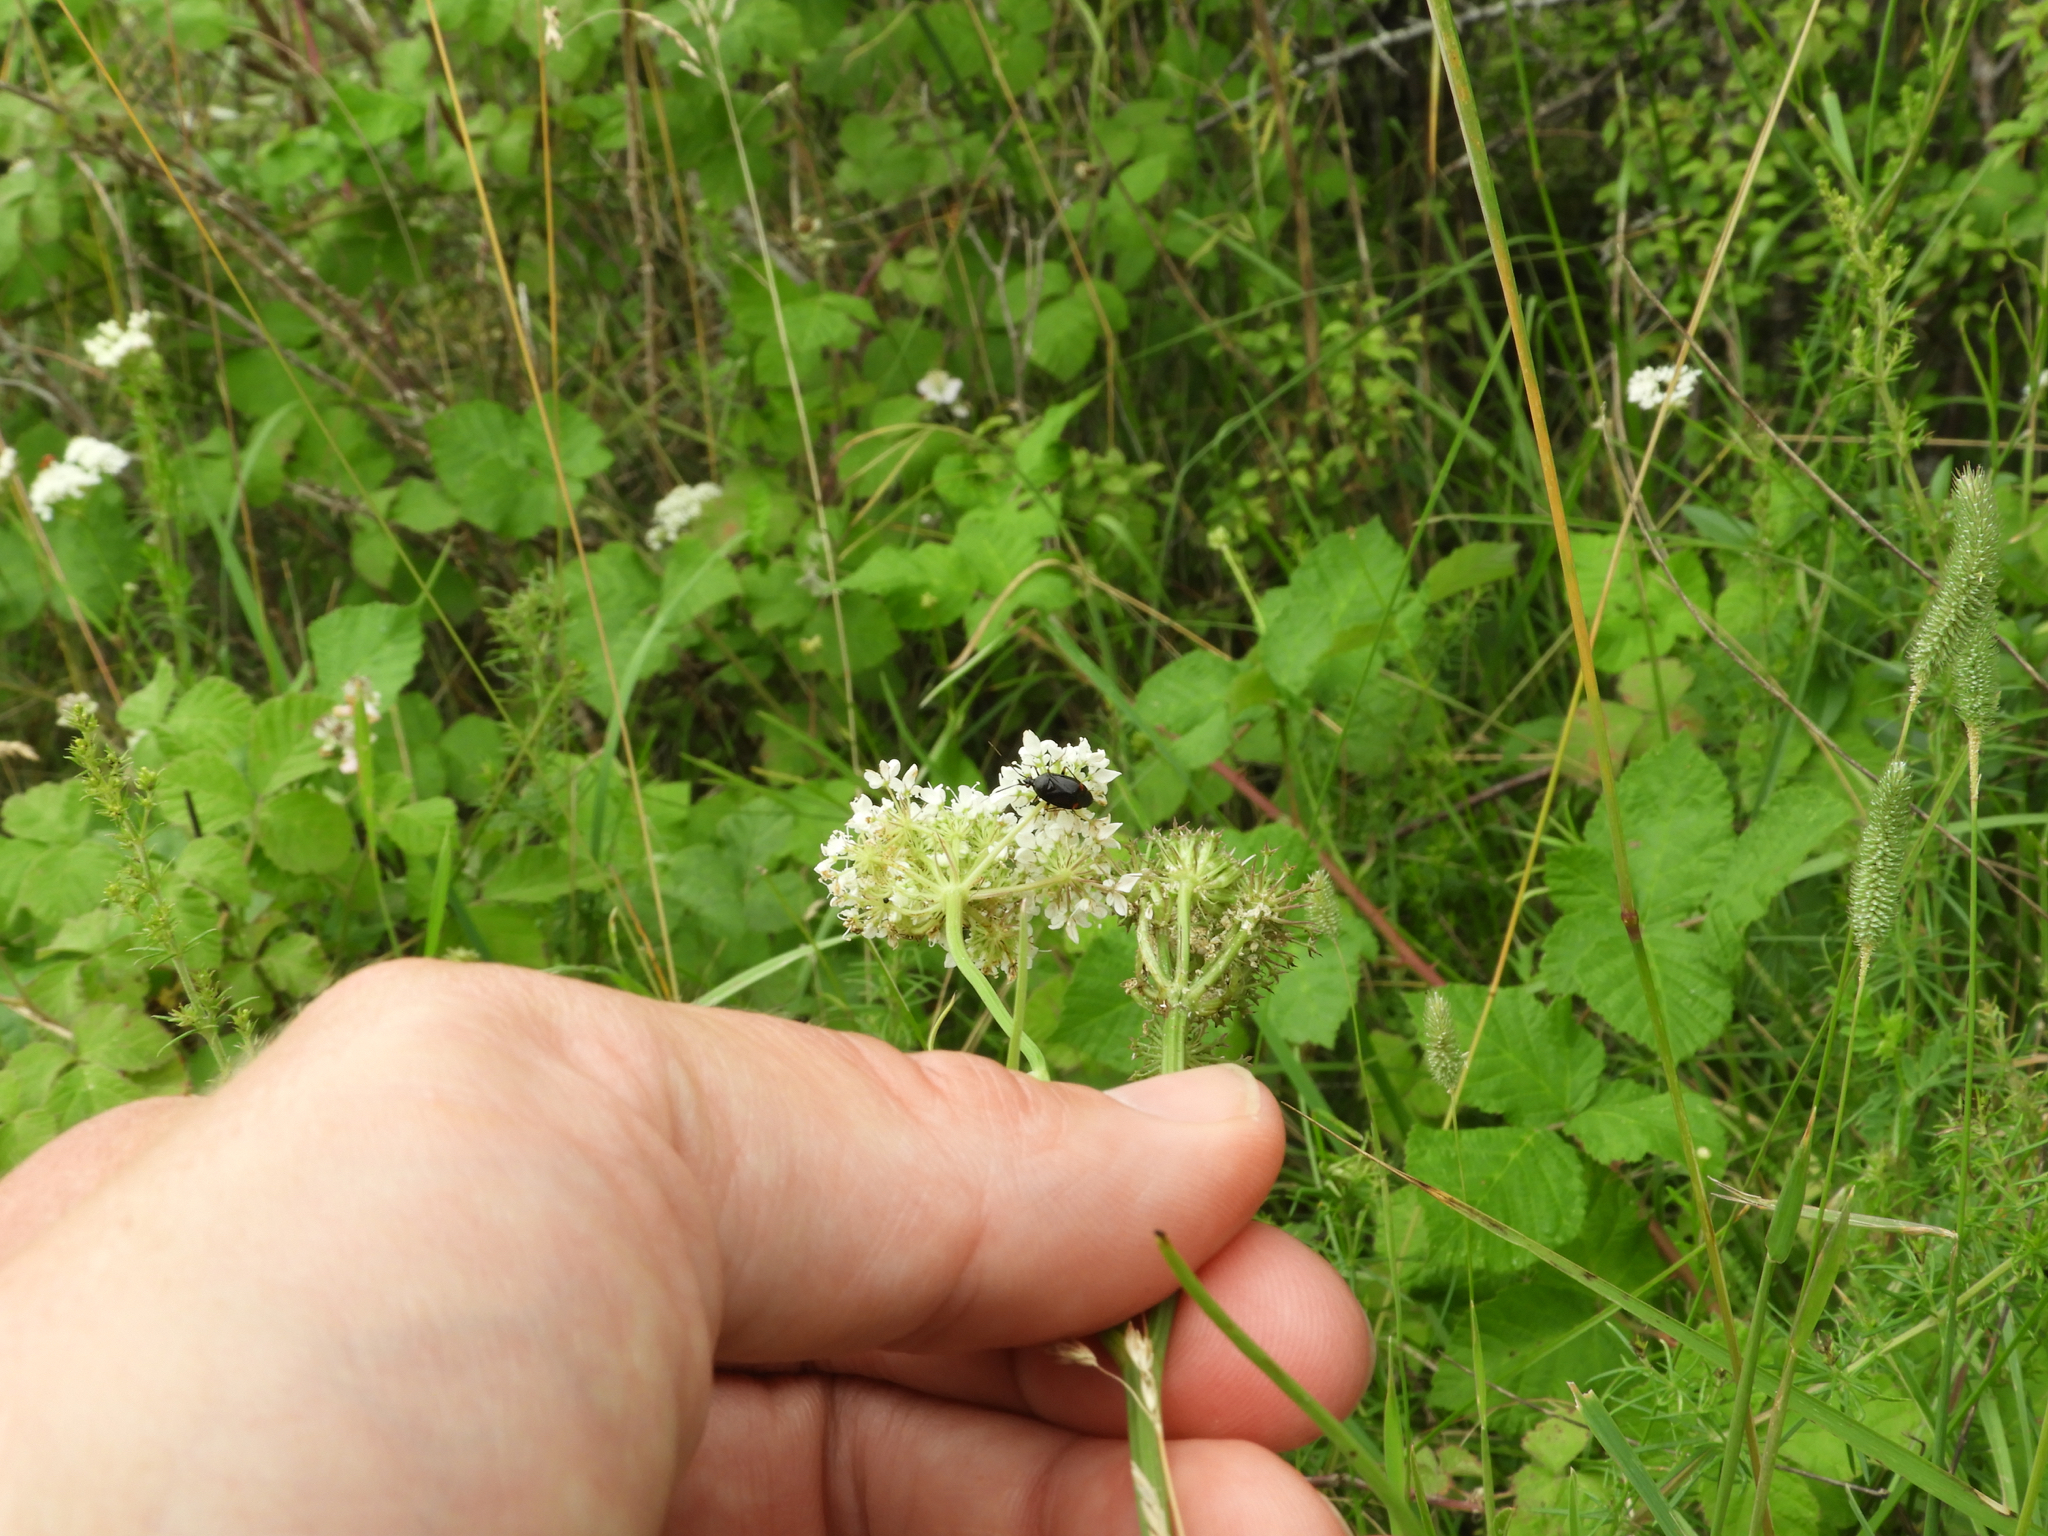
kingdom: Animalia
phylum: Arthropoda
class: Insecta
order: Hemiptera
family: Miridae
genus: Deraeocoris
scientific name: Deraeocoris ruber
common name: Plant bug
